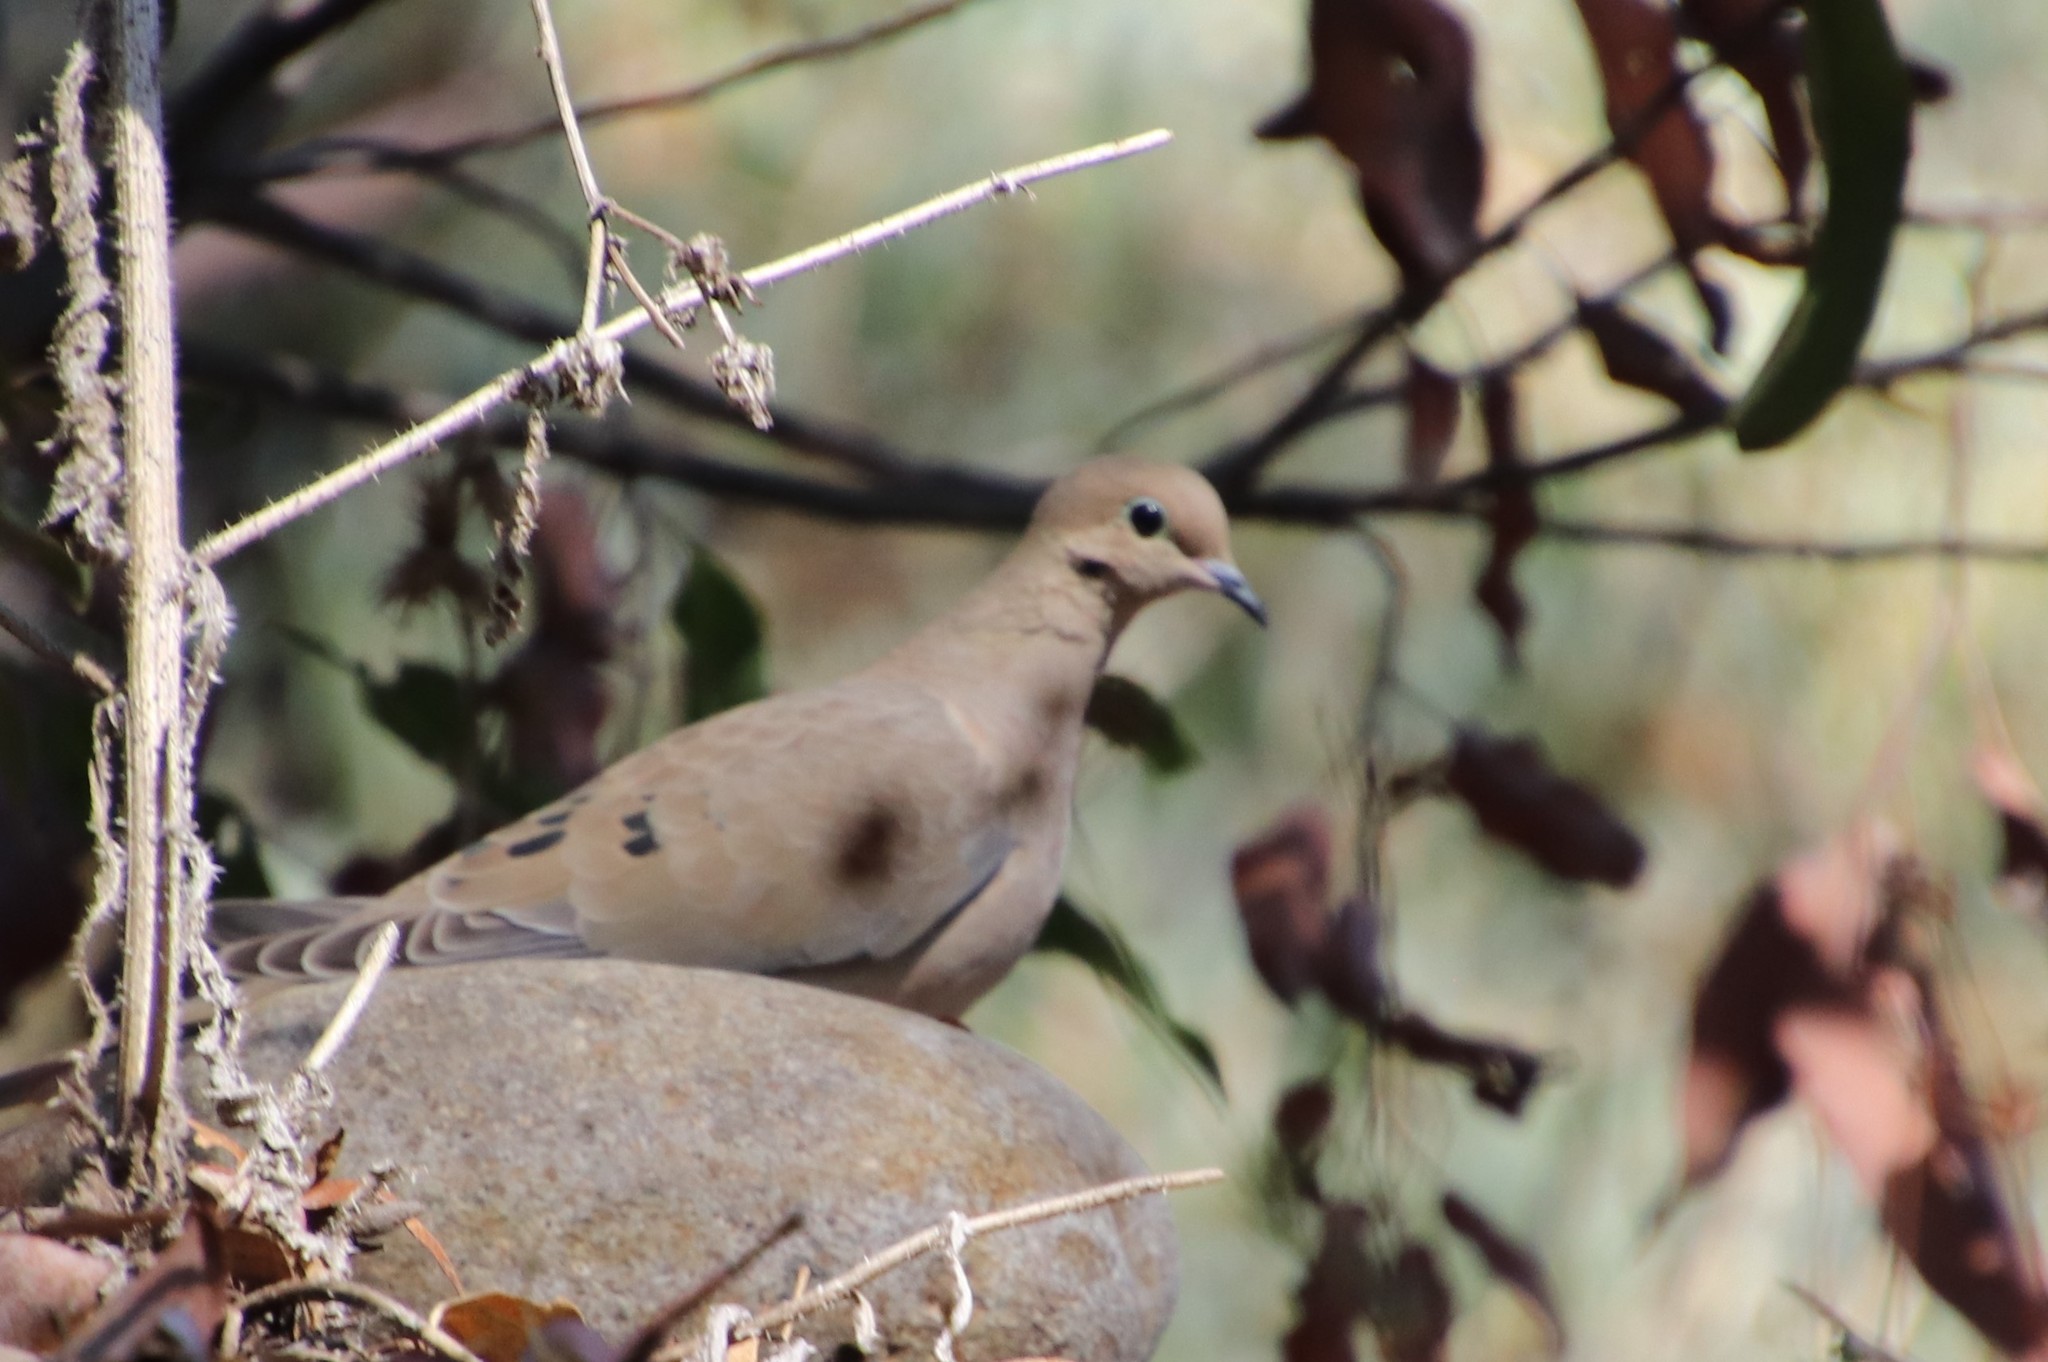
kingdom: Animalia
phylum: Chordata
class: Aves
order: Columbiformes
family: Columbidae
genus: Zenaida
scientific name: Zenaida macroura
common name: Mourning dove
